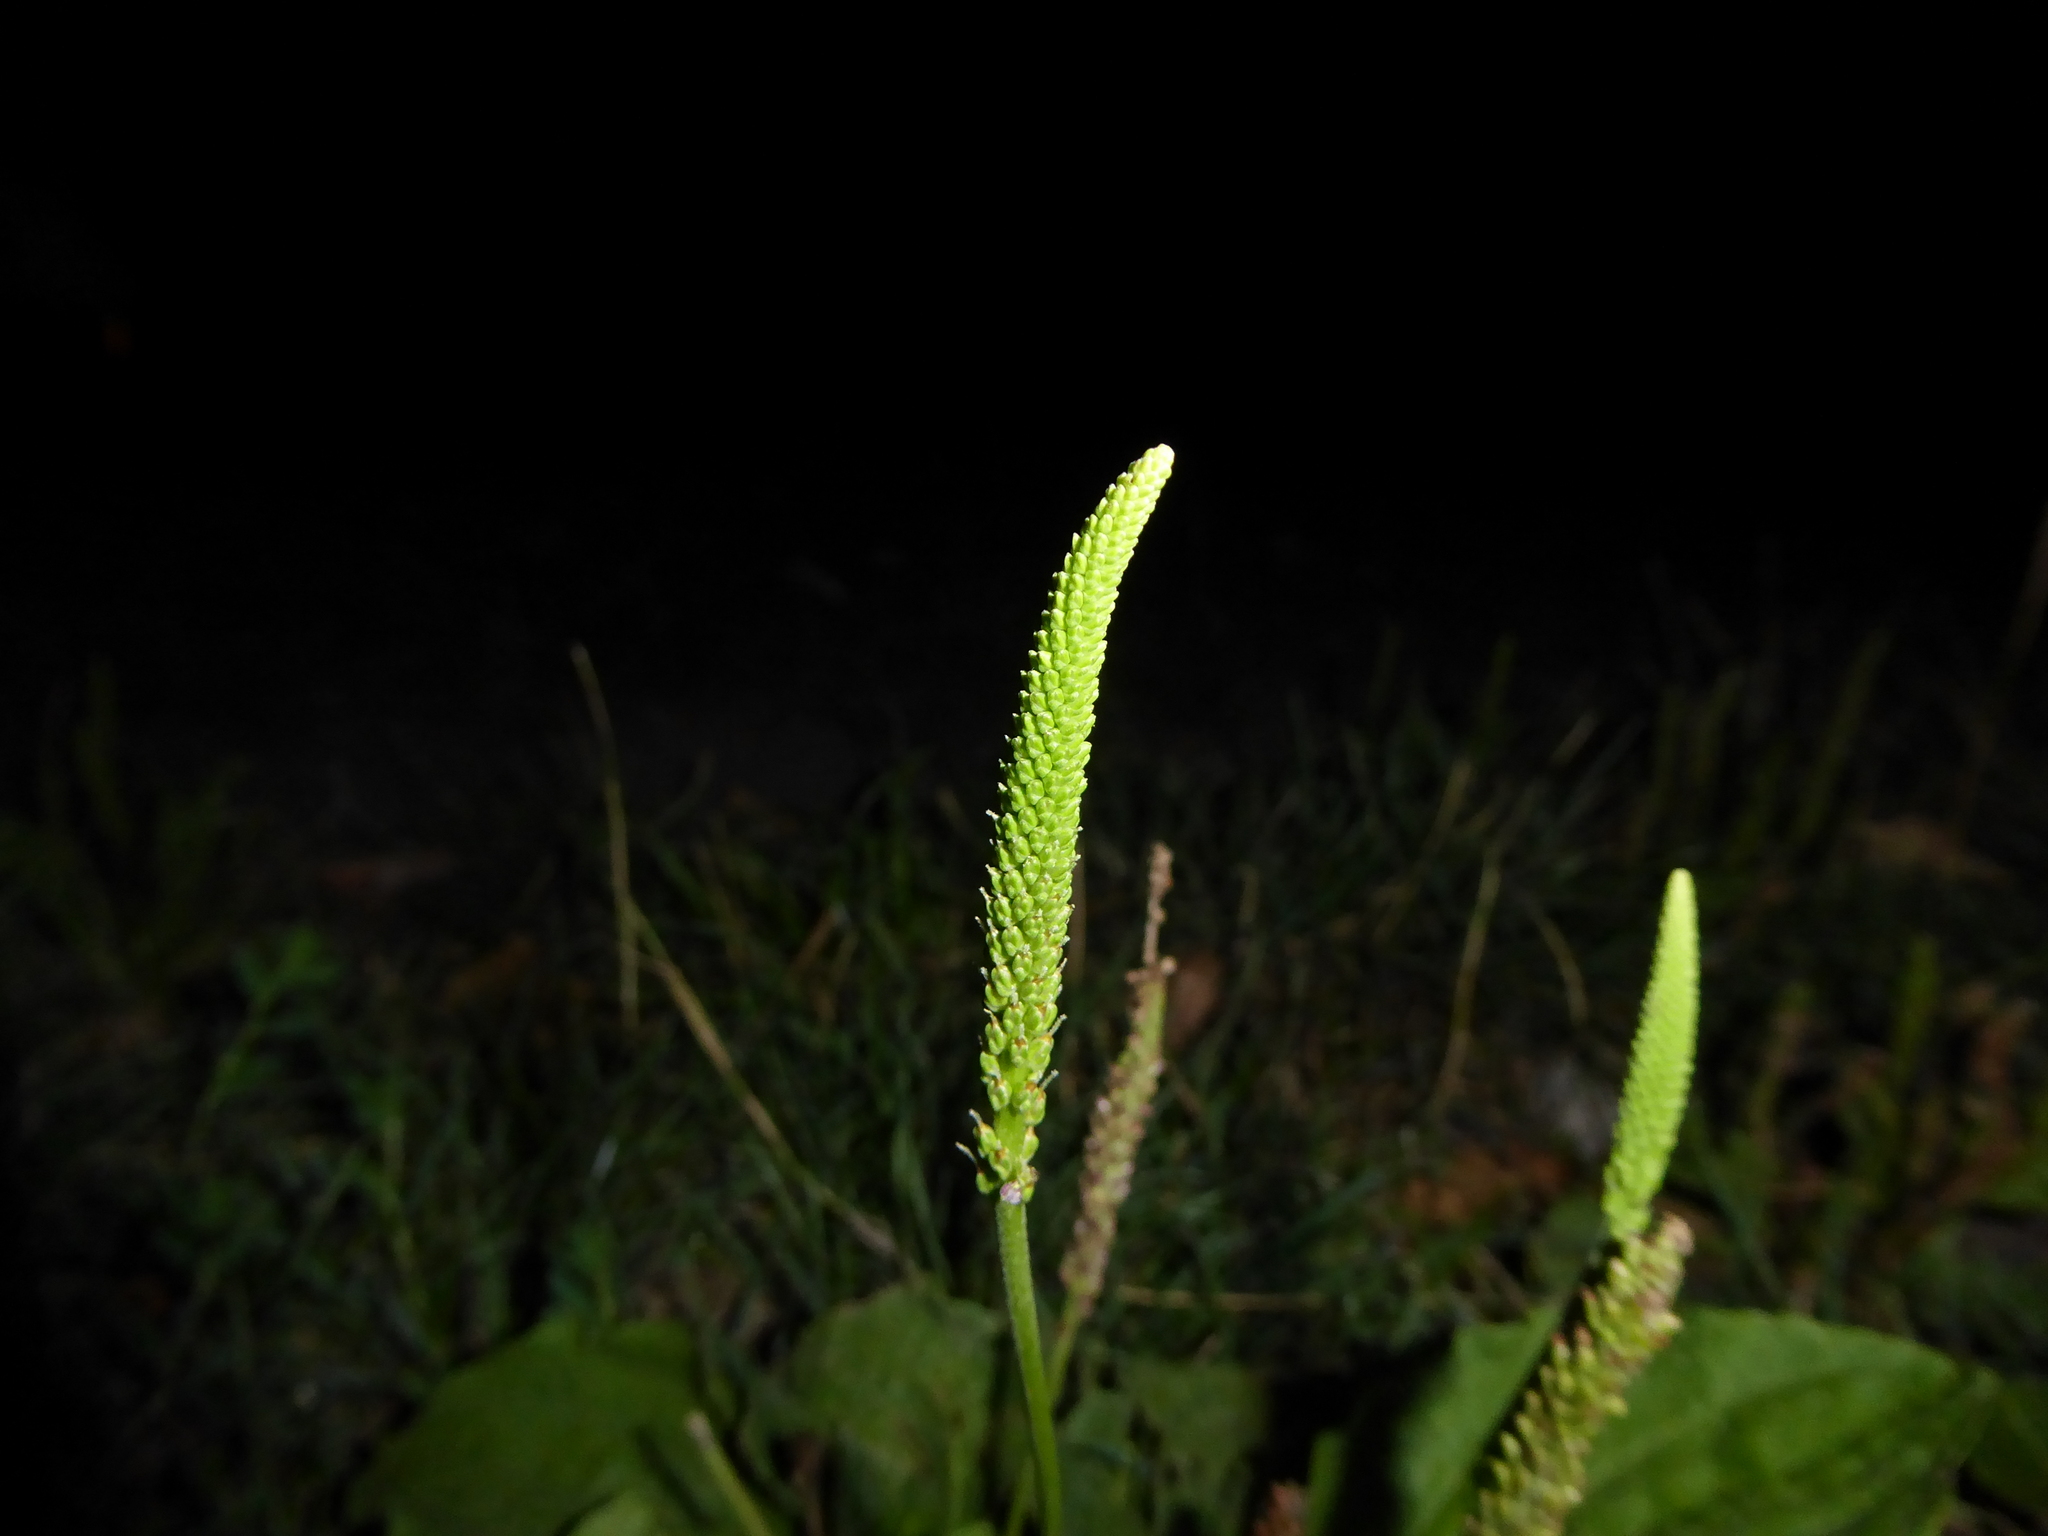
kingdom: Plantae
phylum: Tracheophyta
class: Magnoliopsida
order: Lamiales
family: Plantaginaceae
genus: Plantago
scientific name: Plantago major
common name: Common plantain
